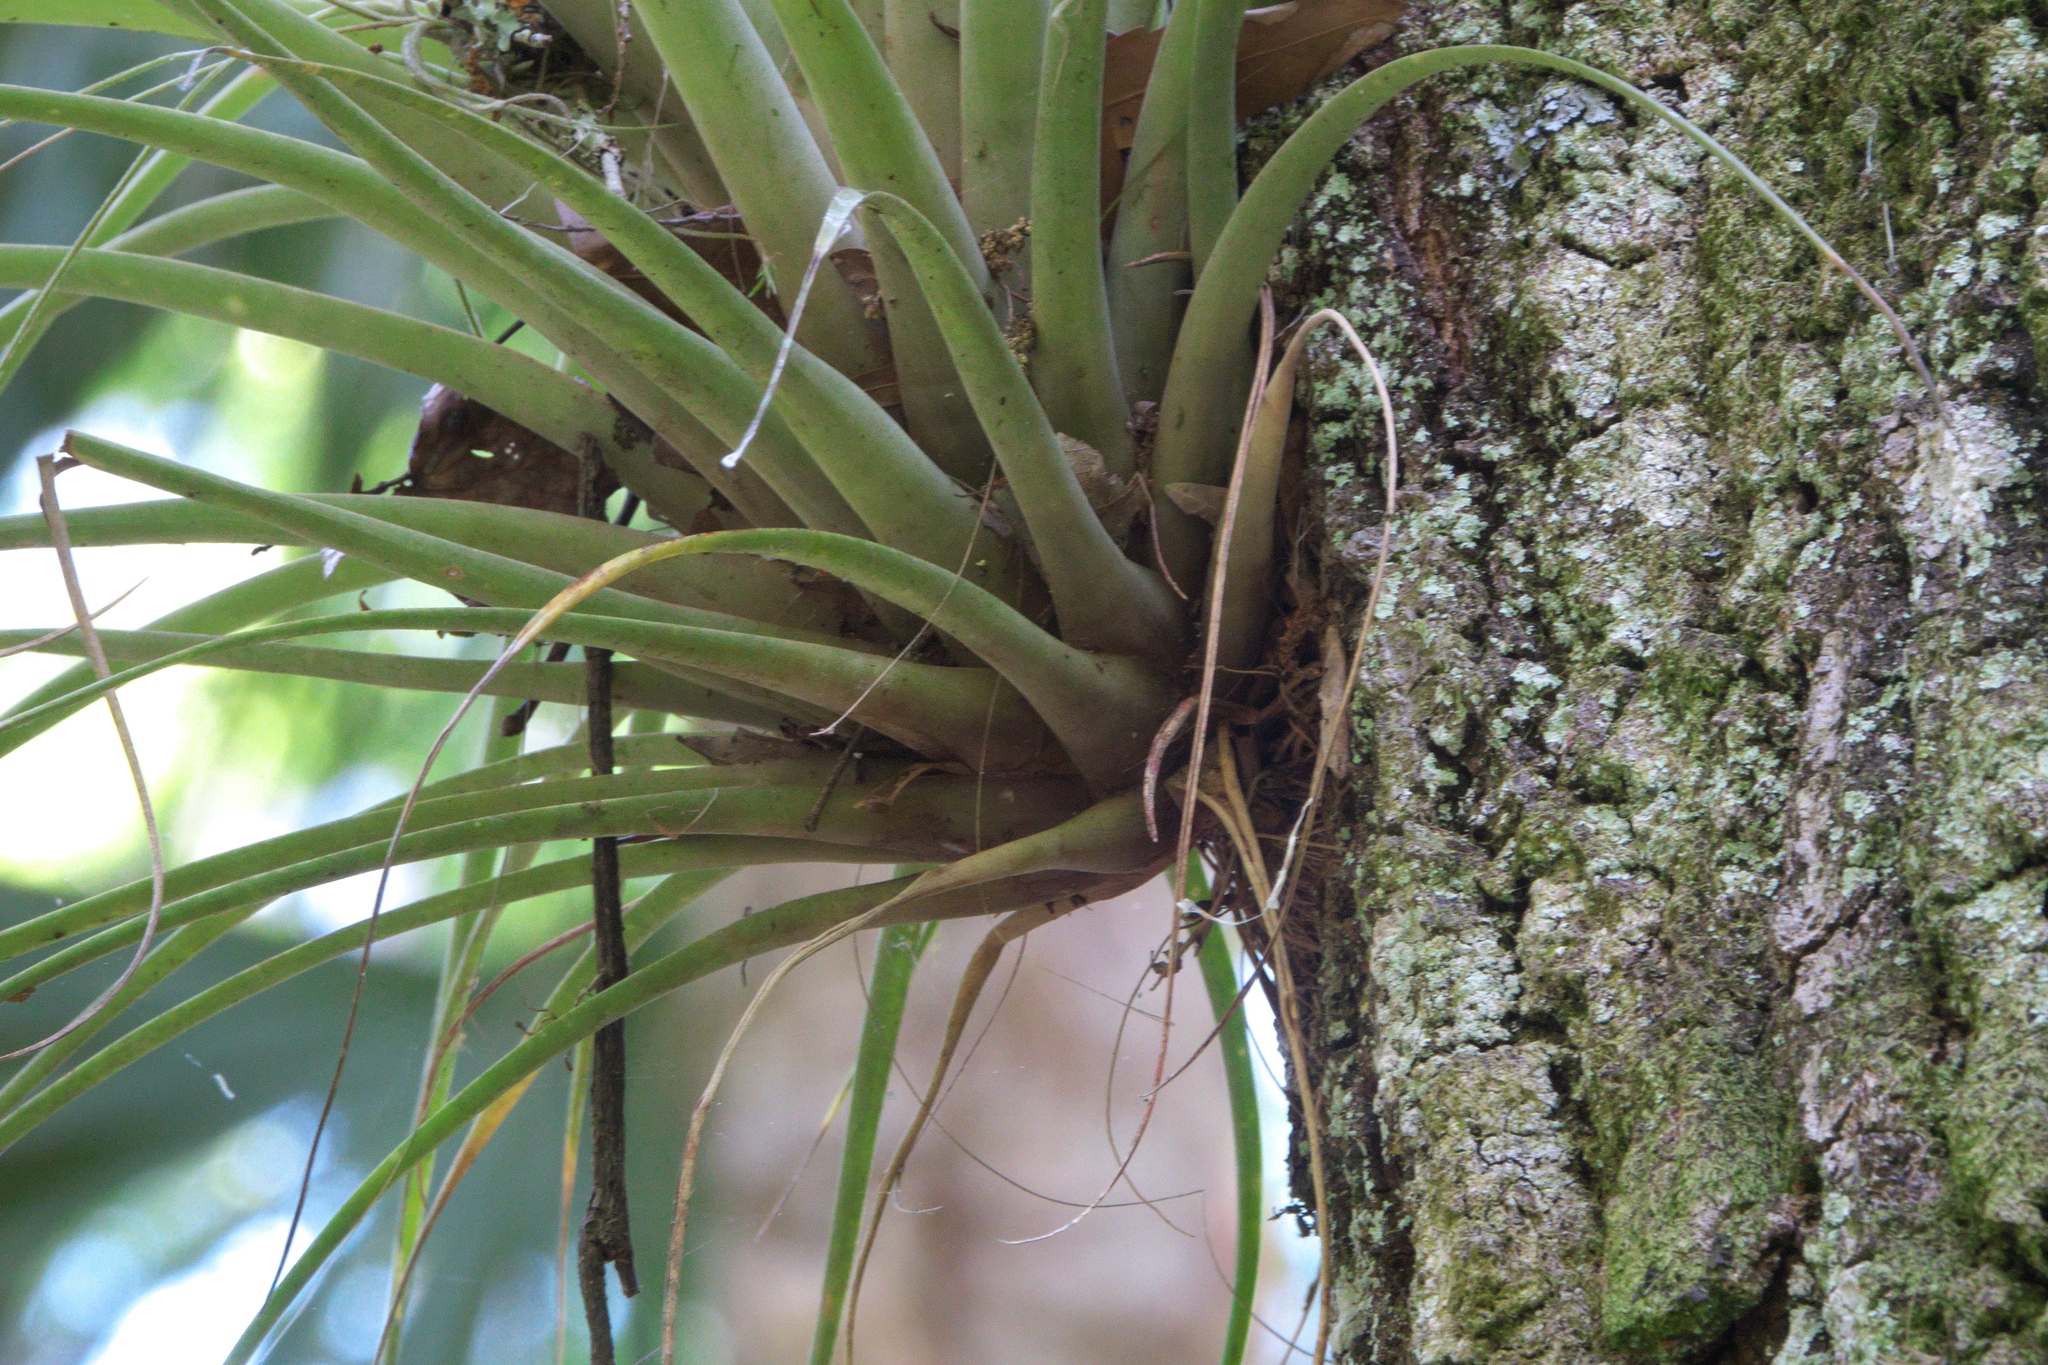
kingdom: Plantae
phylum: Tracheophyta
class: Liliopsida
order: Poales
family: Bromeliaceae
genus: Tillandsia
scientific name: Tillandsia fasciculata
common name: Giant airplant
